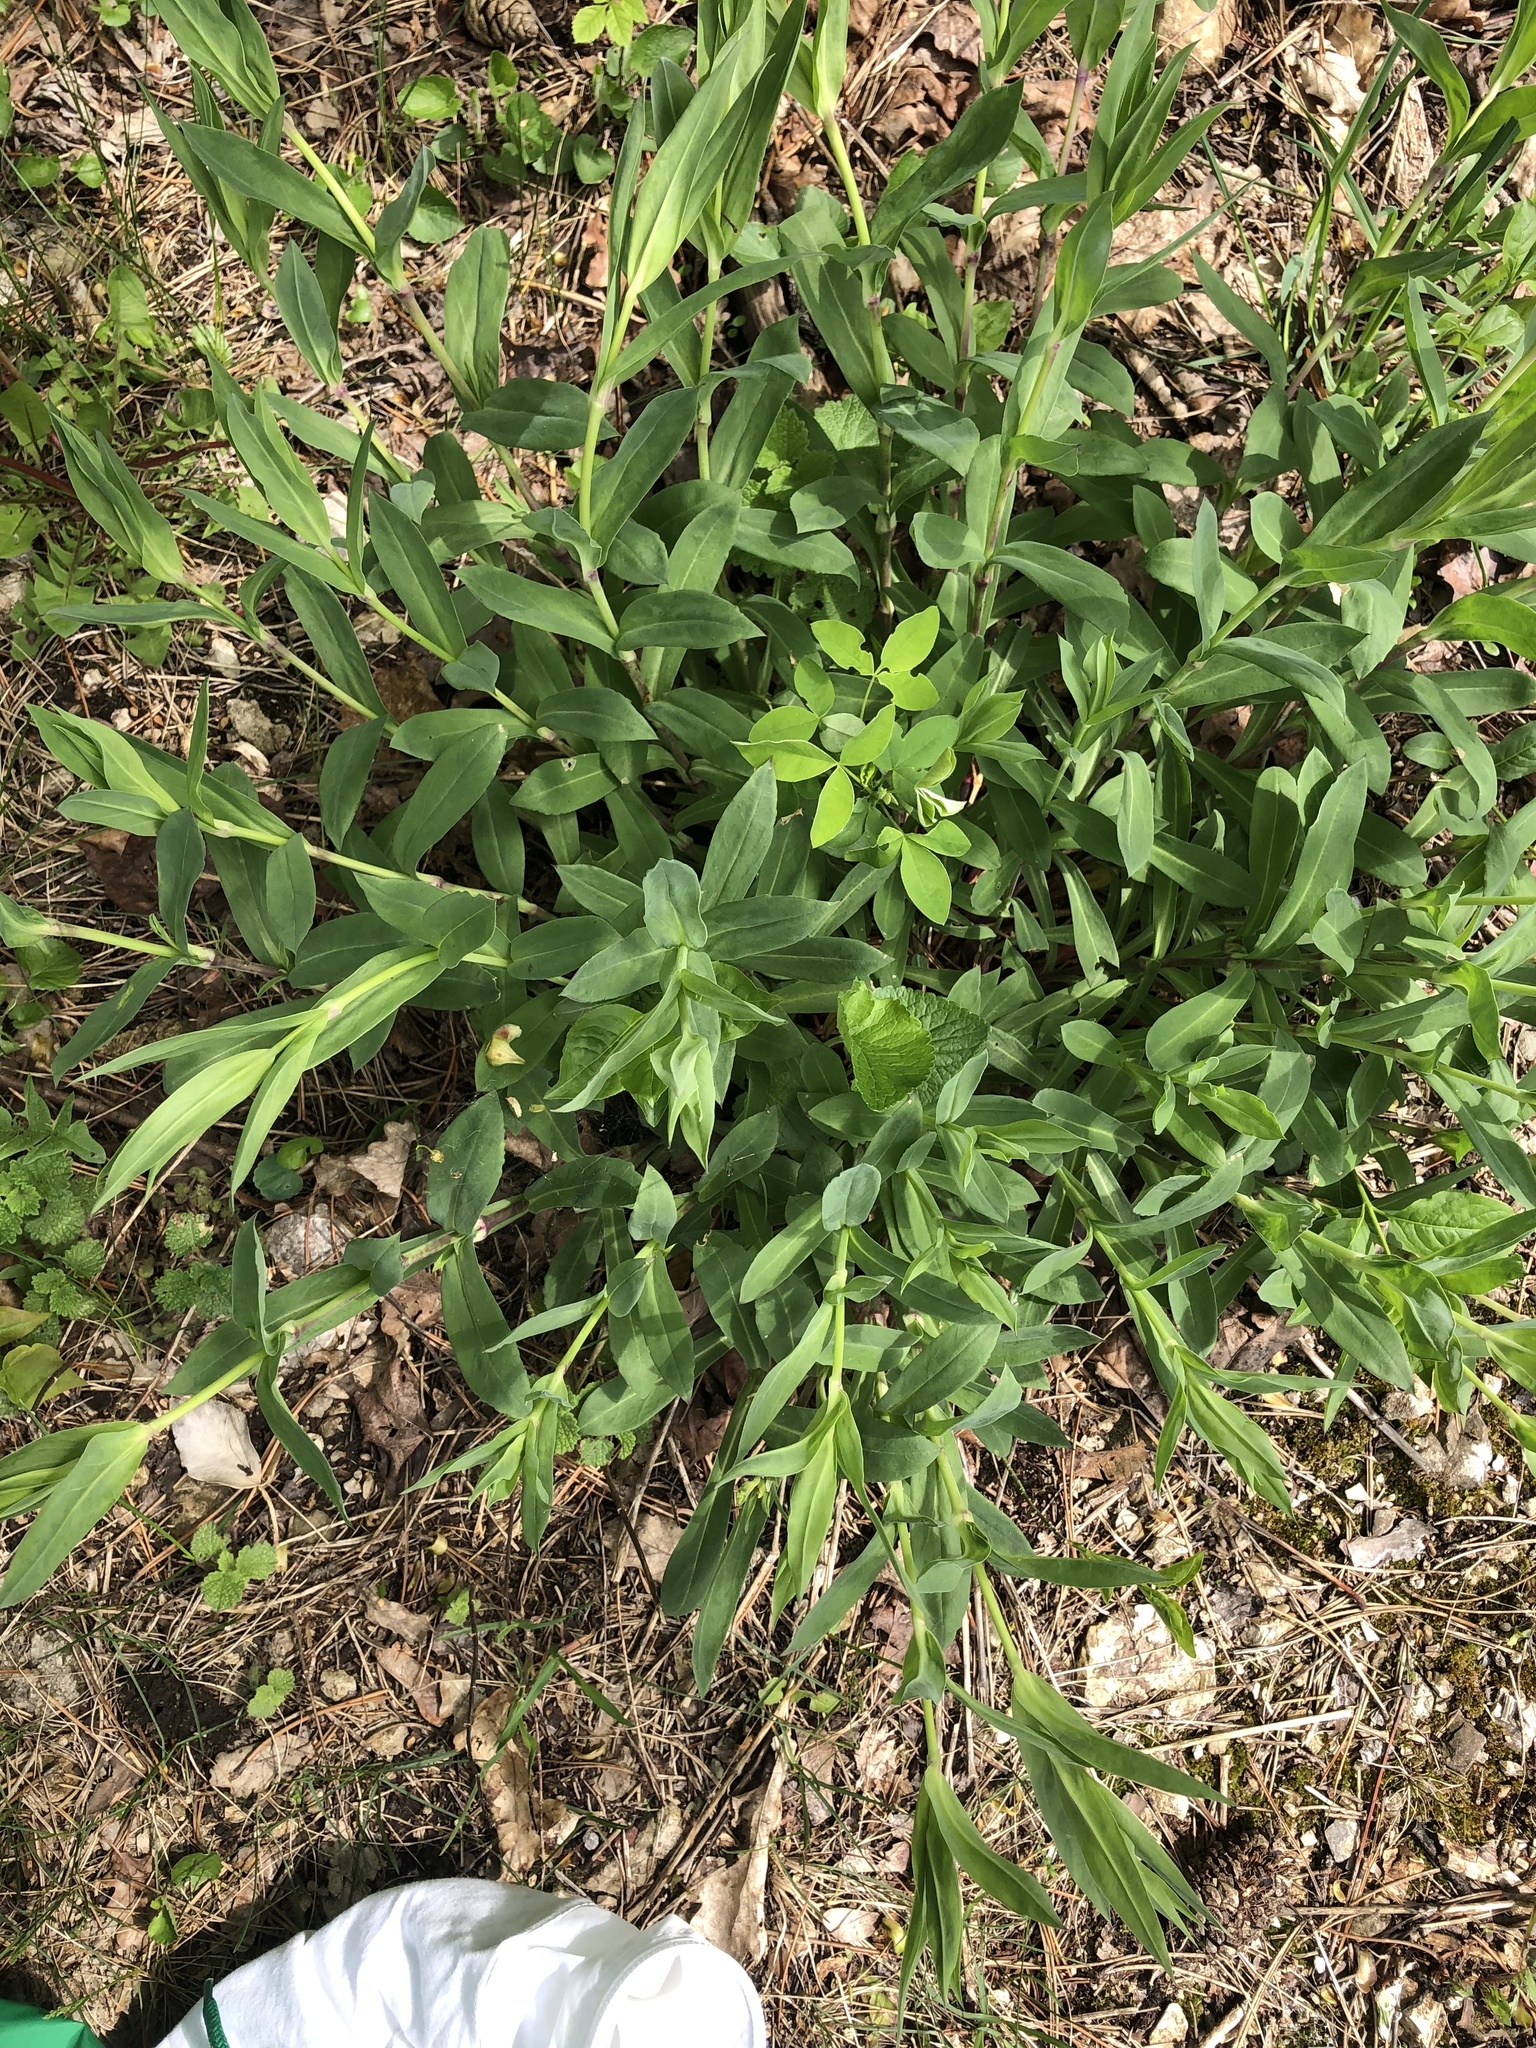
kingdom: Plantae
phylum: Tracheophyta
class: Magnoliopsida
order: Caryophyllales
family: Caryophyllaceae
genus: Silene
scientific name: Silene vulgaris
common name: Bladder campion
